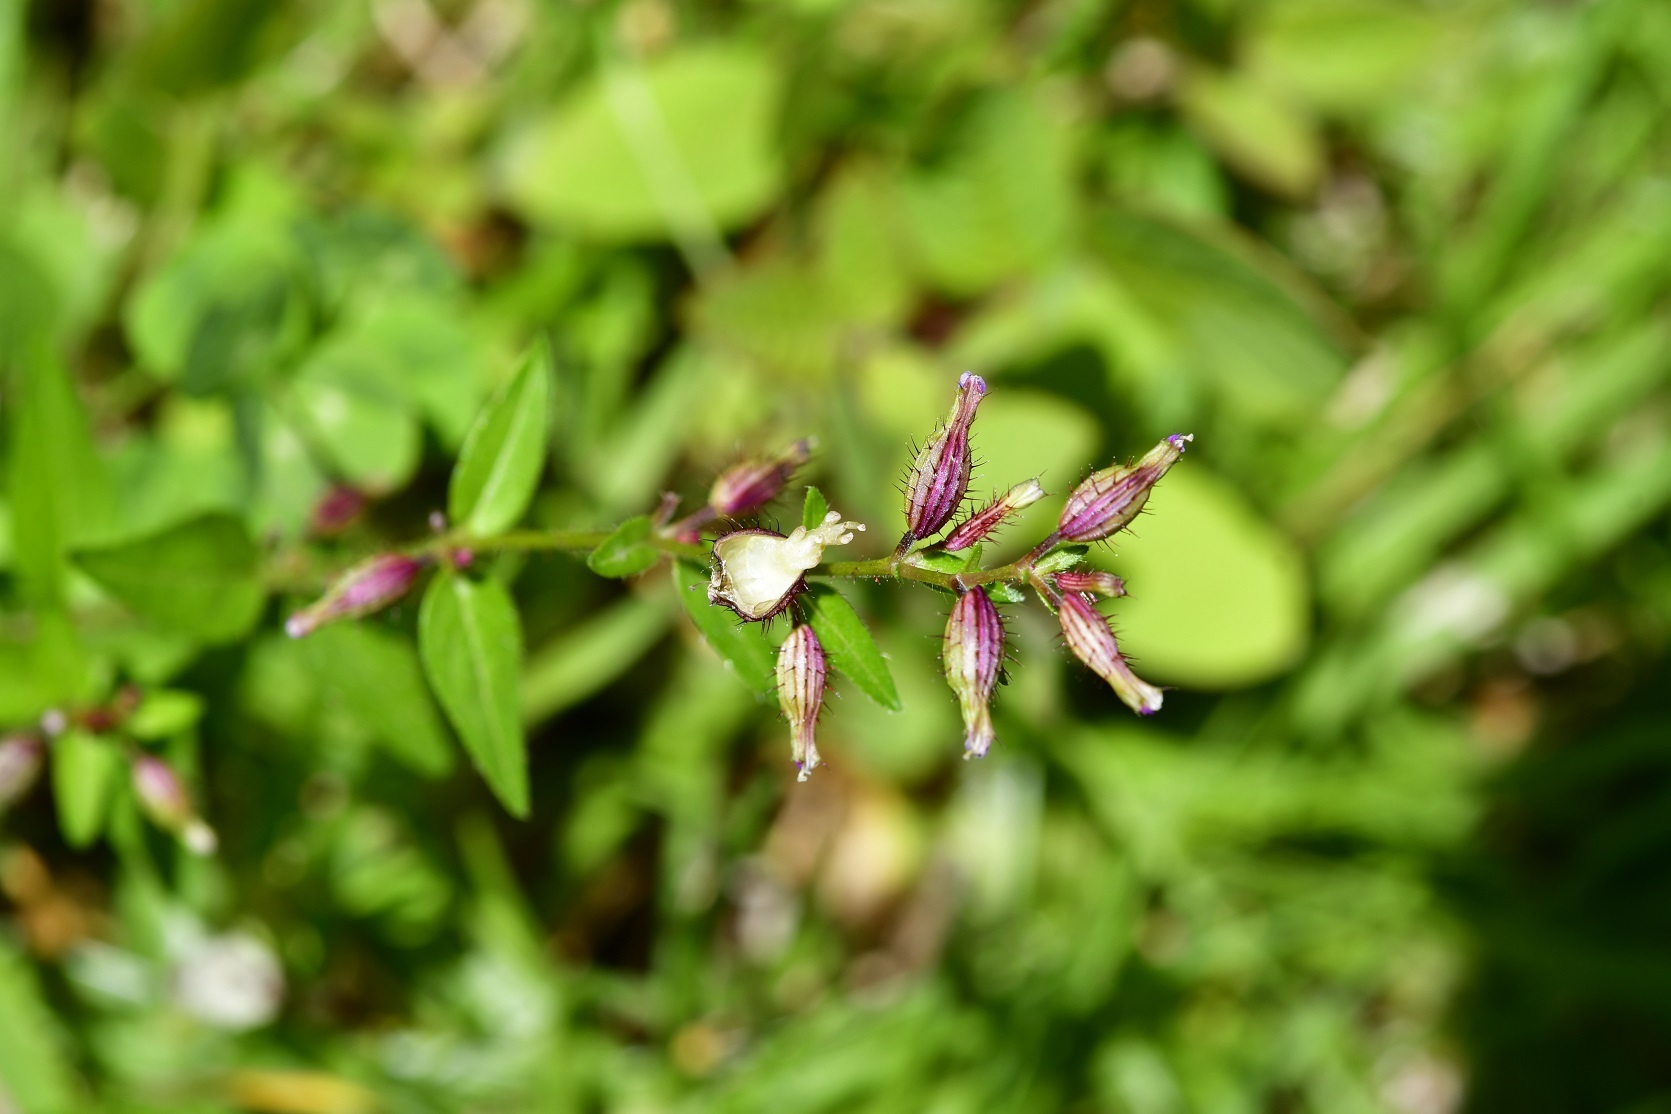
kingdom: Plantae
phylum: Tracheophyta
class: Magnoliopsida
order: Myrtales
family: Lythraceae
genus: Cuphea
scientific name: Cuphea tolucana
